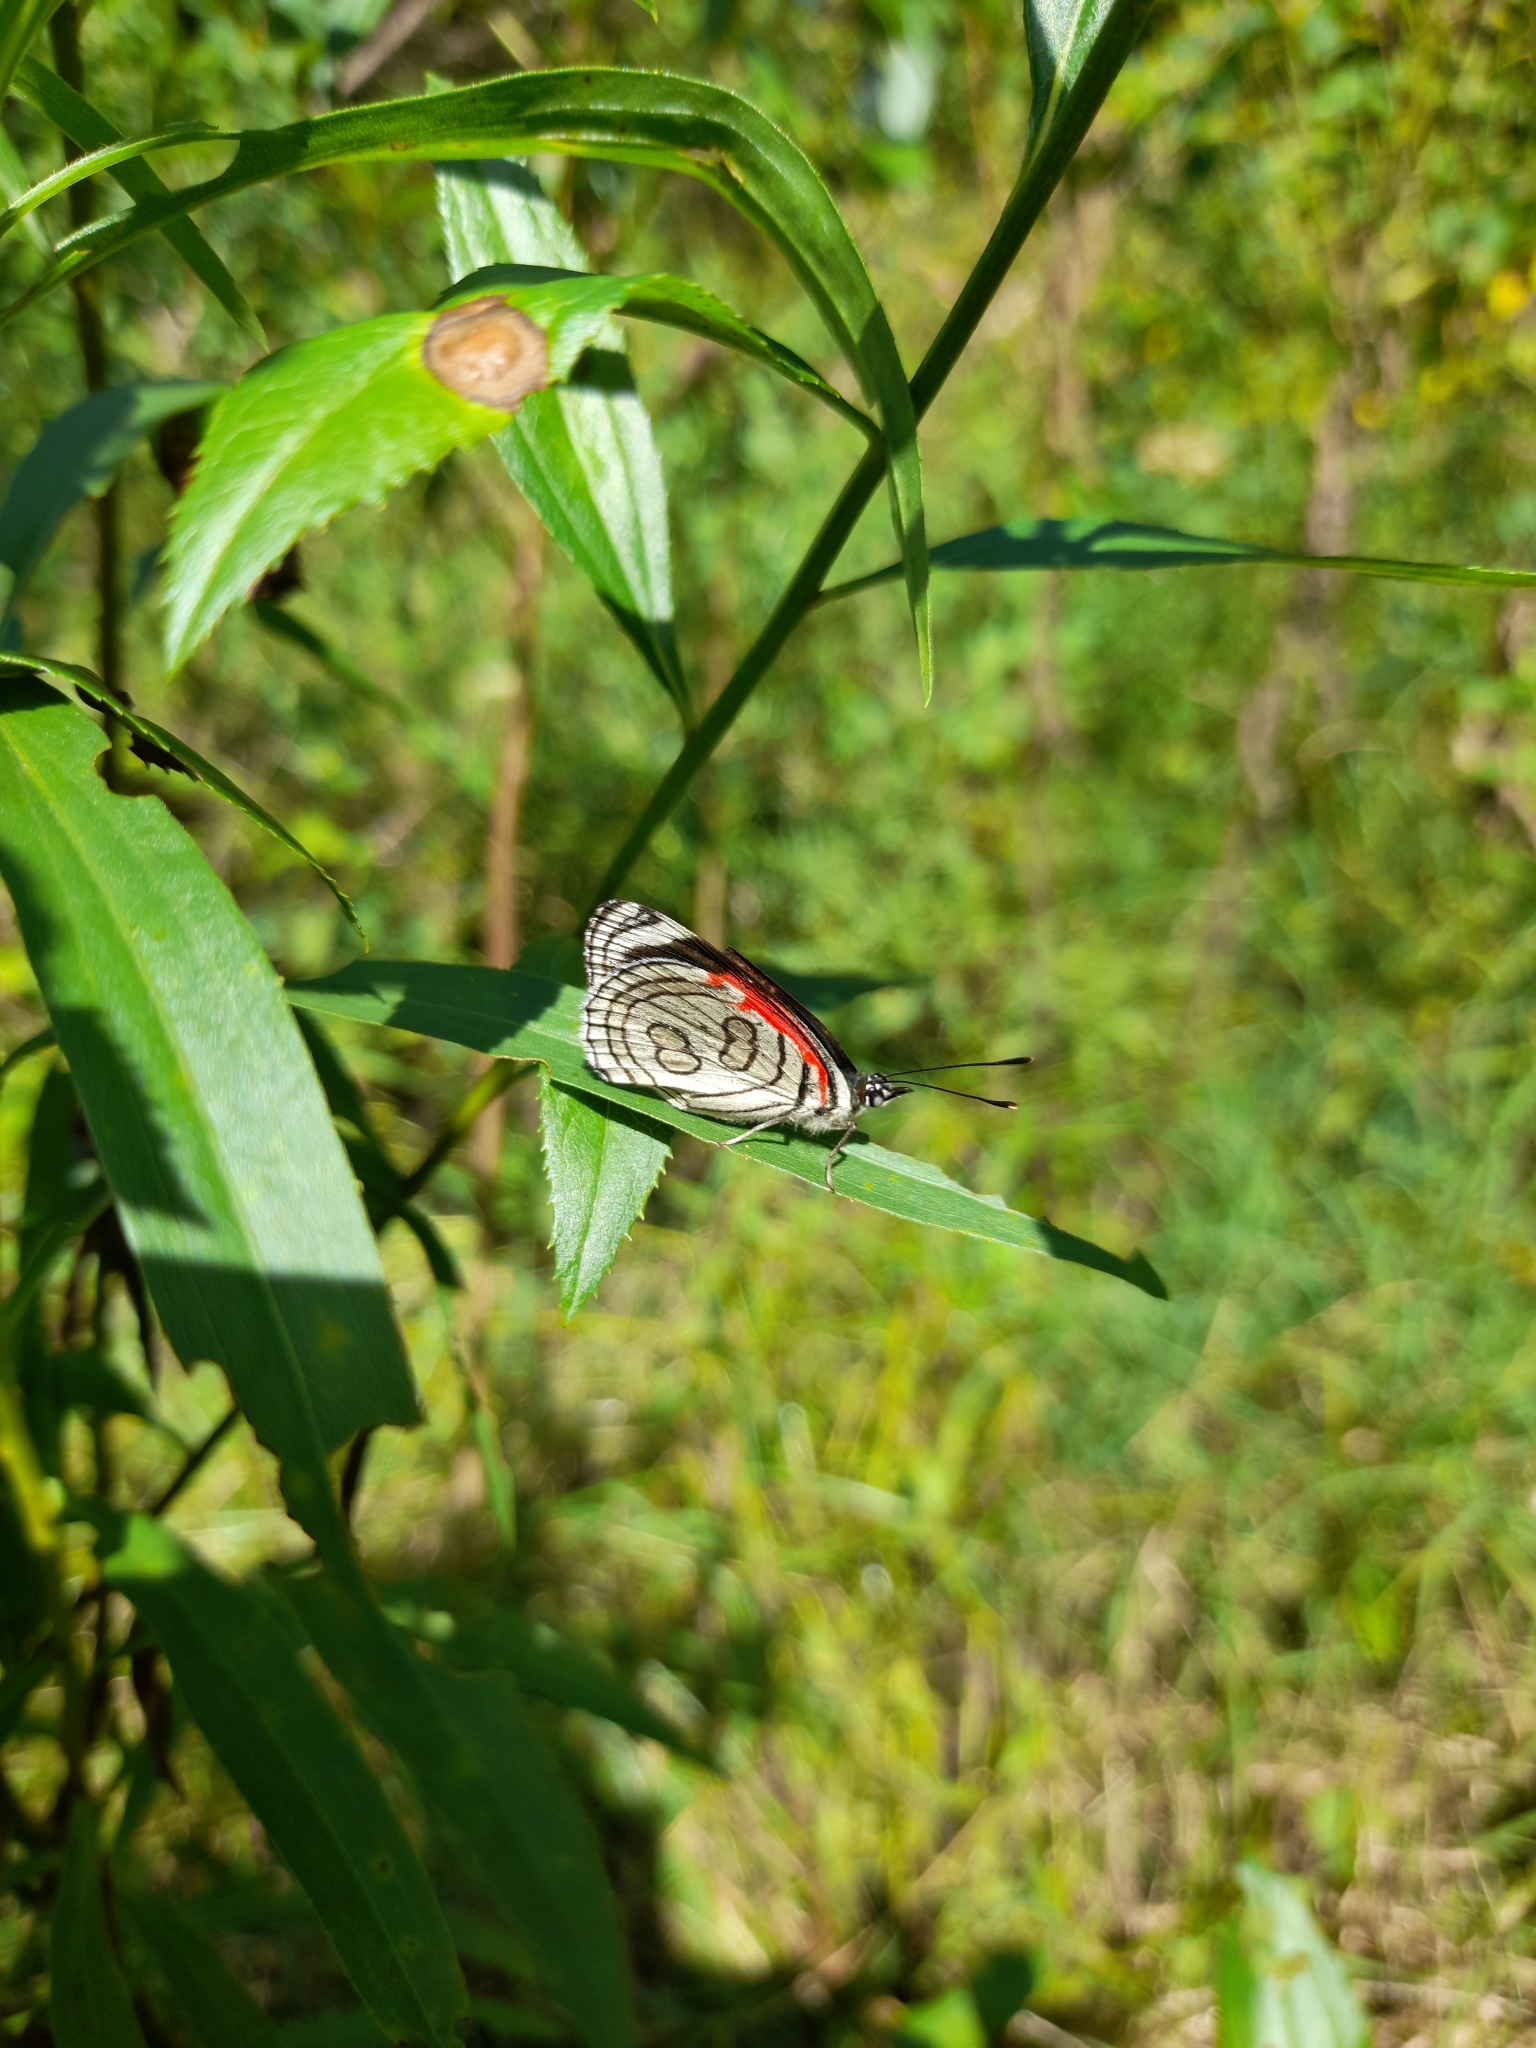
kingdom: Animalia
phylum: Arthropoda
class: Insecta
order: Lepidoptera
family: Nymphalidae
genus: Diaethria
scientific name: Diaethria candrena
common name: Number eighty
